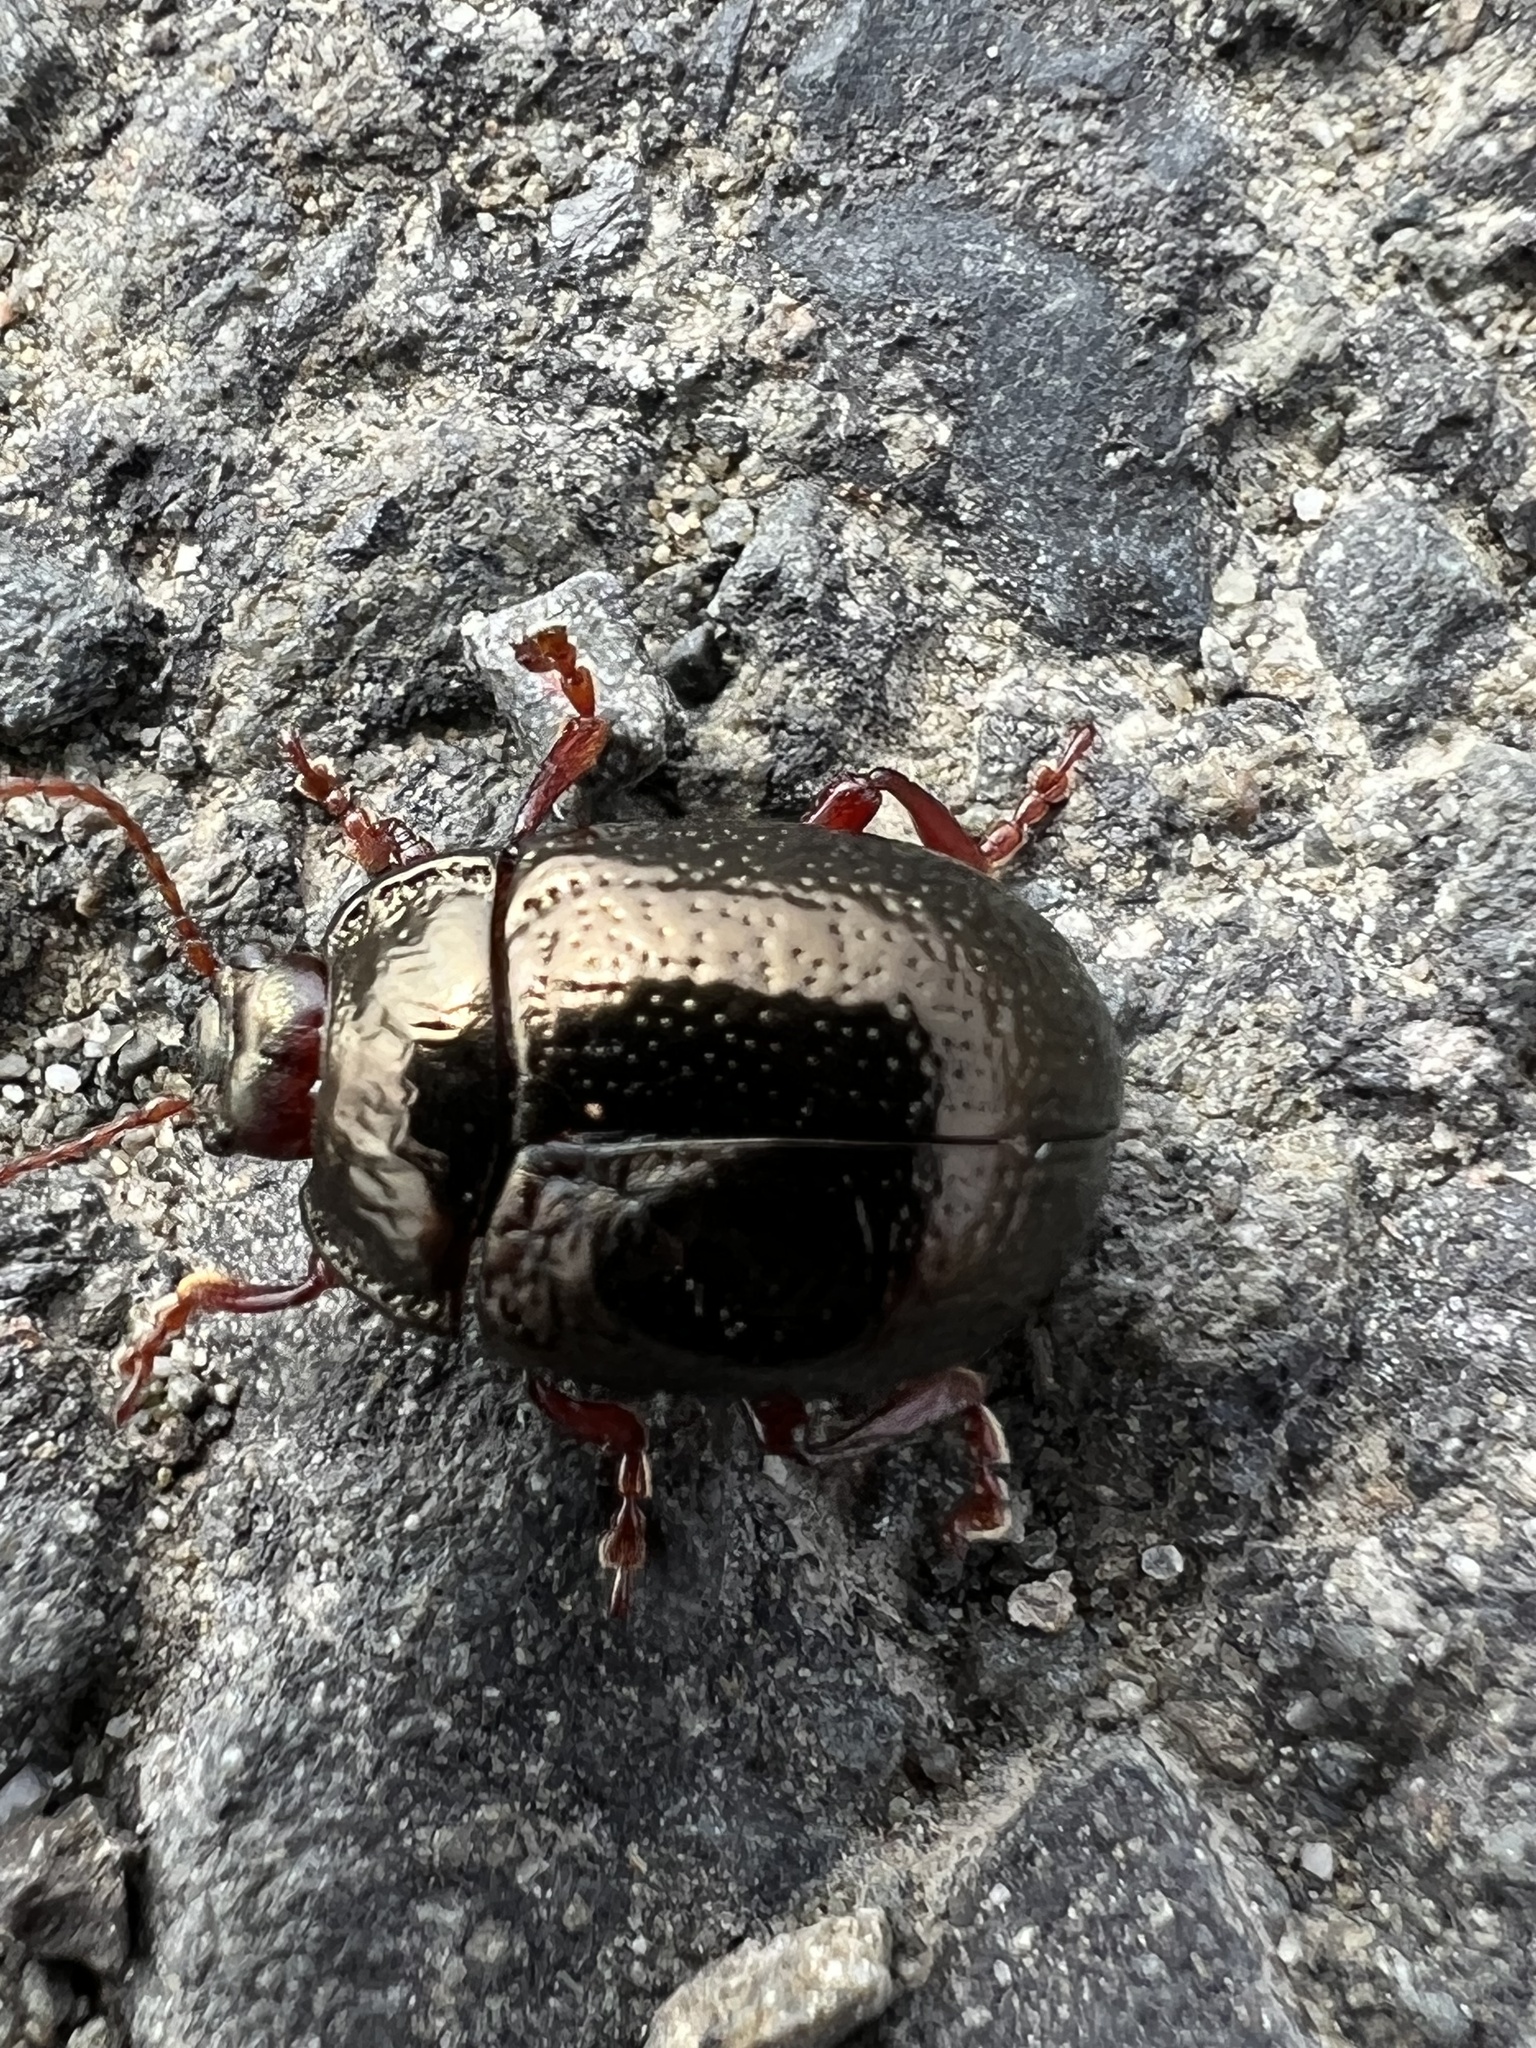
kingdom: Animalia
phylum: Arthropoda
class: Insecta
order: Coleoptera
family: Chrysomelidae
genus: Chrysolina
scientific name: Chrysolina bankii
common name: Leaf beetle
